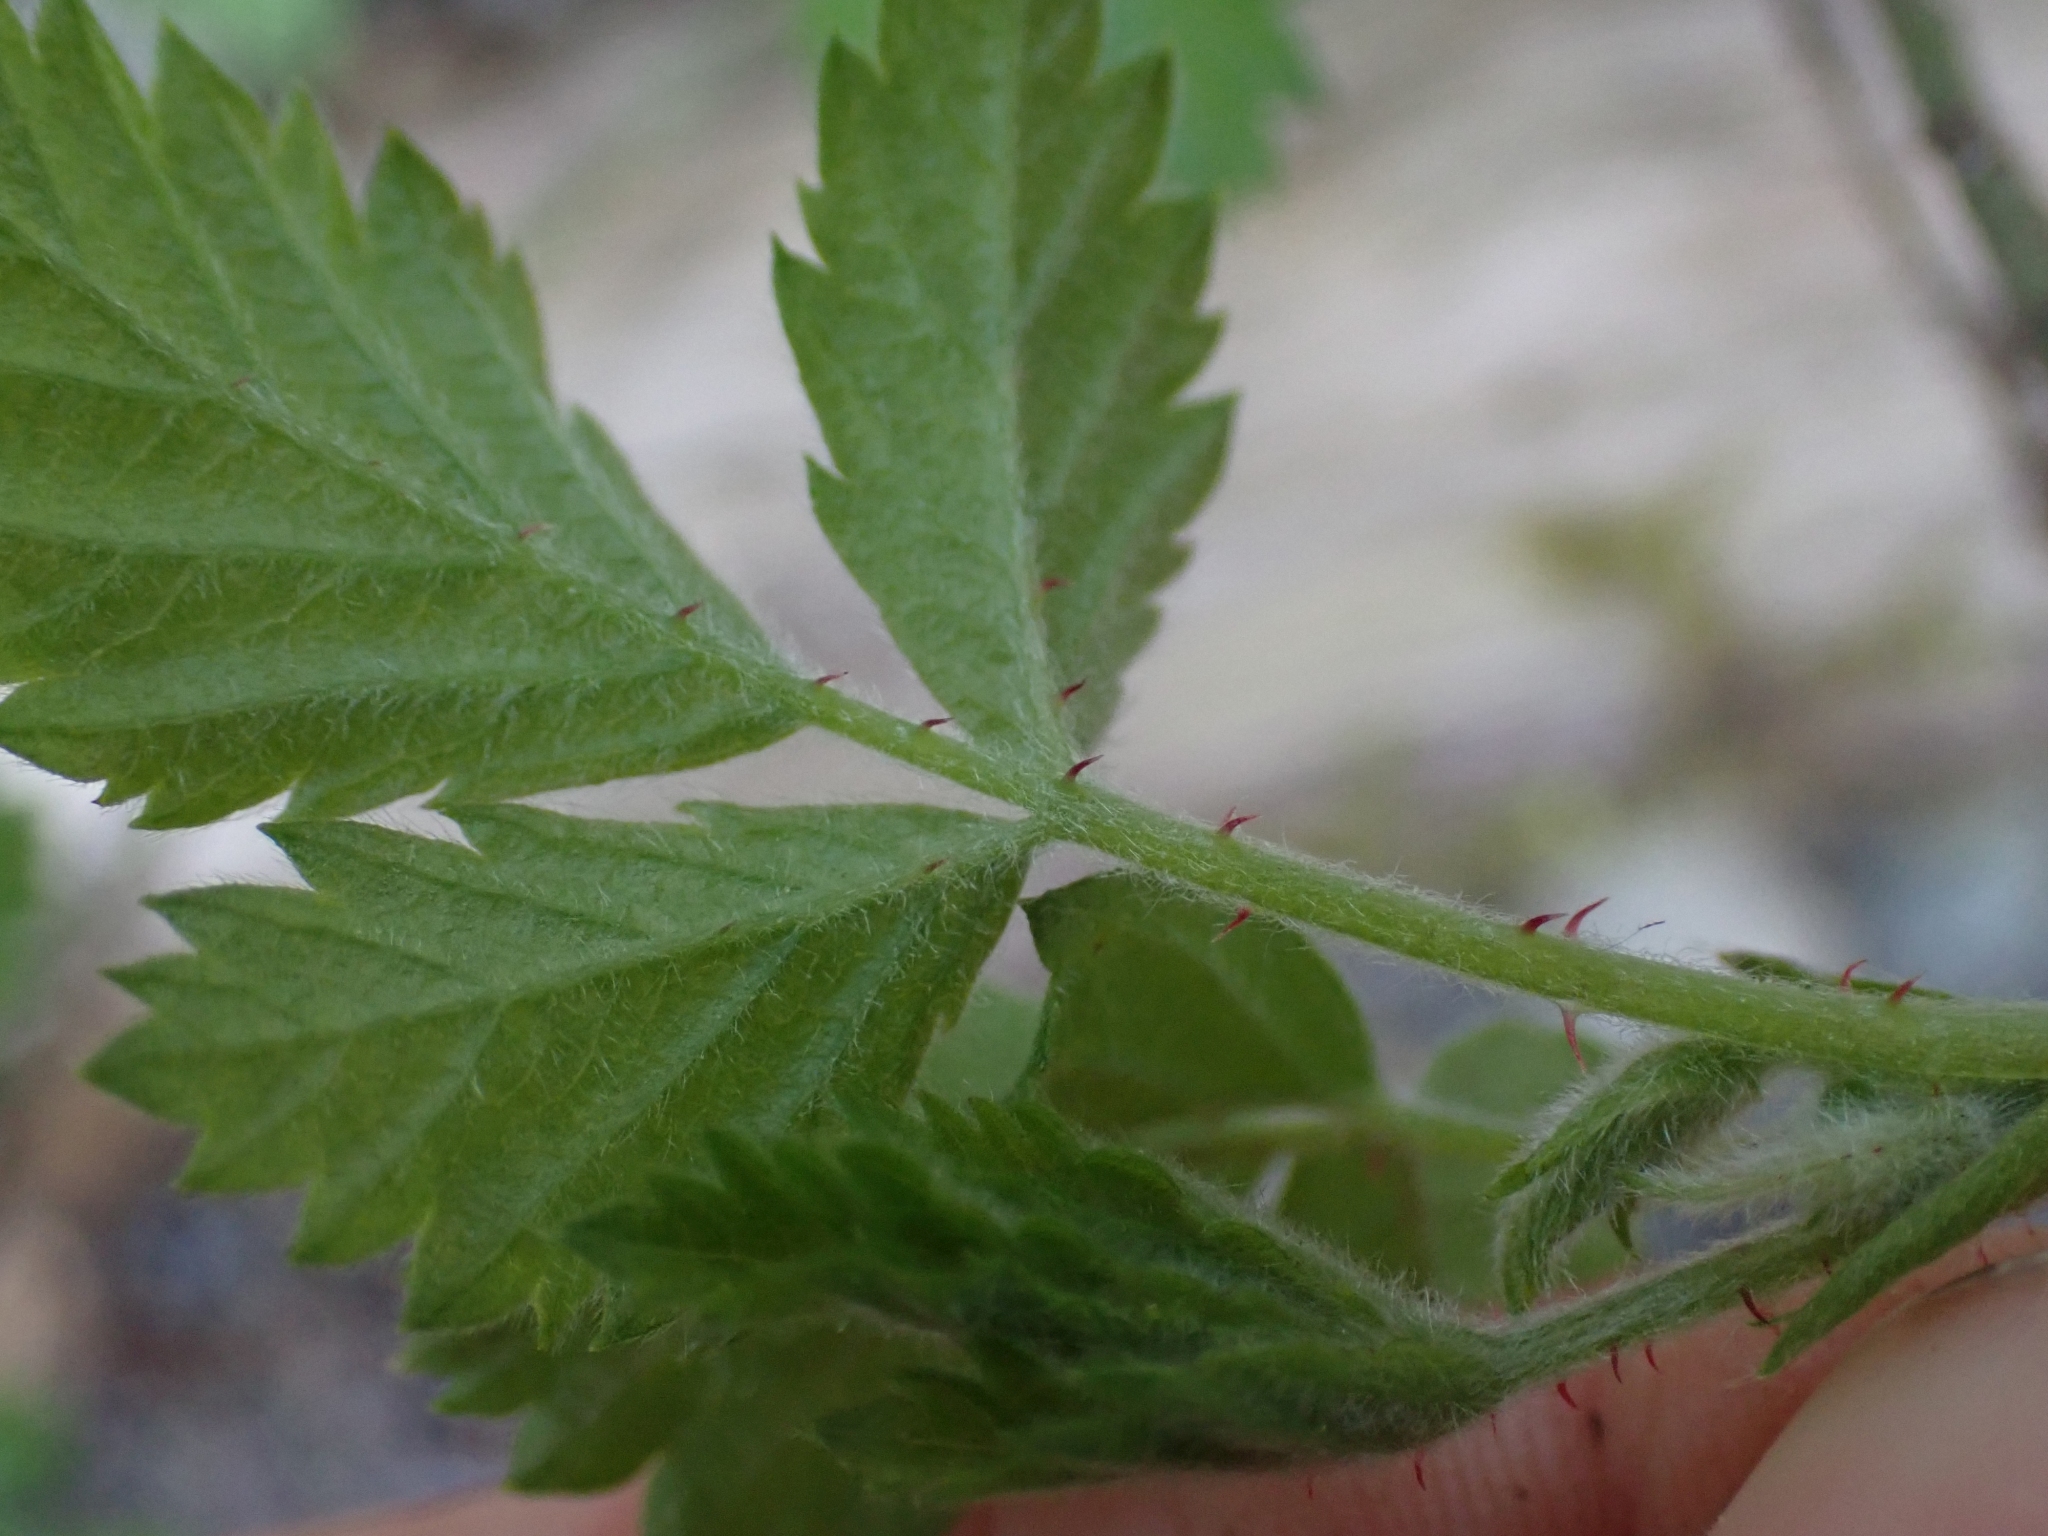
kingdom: Plantae
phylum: Tracheophyta
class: Magnoliopsida
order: Rosales
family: Rosaceae
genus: Rubus
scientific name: Rubus ursinus
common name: Pacific blackberry
